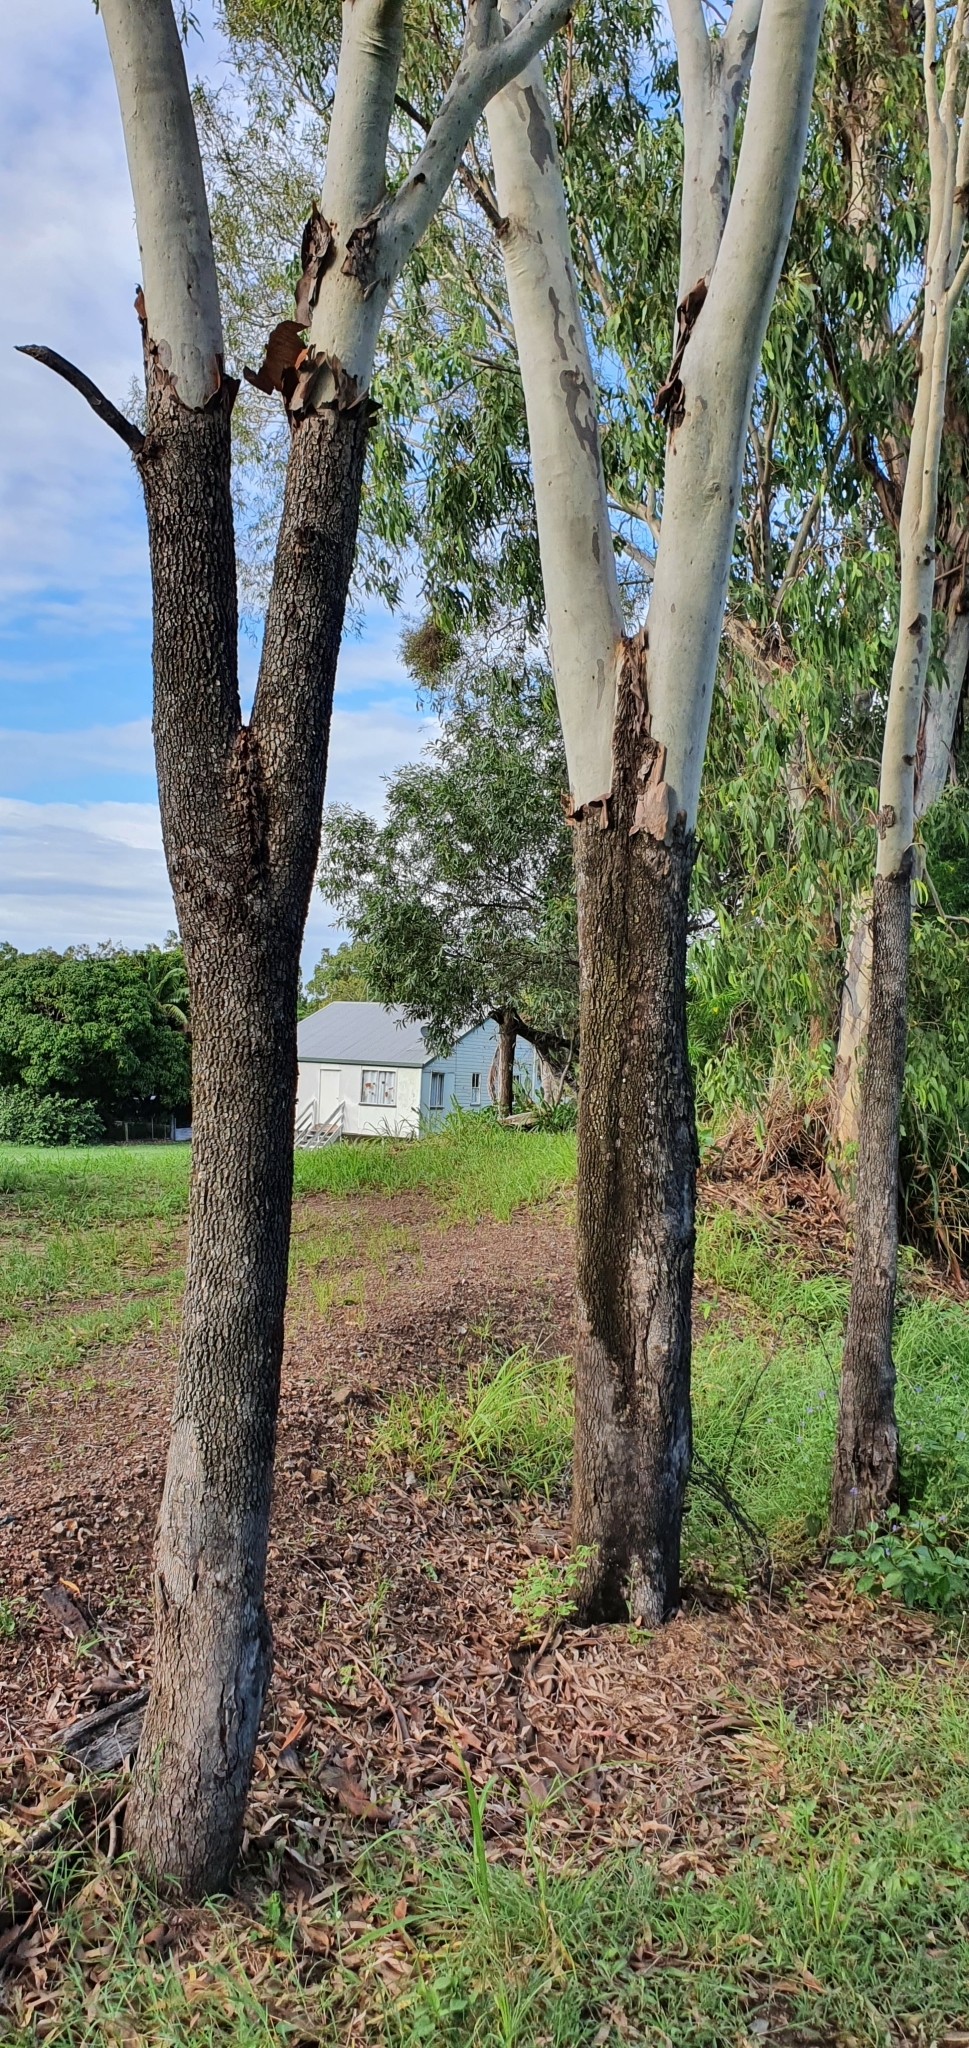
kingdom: Plantae
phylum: Tracheophyta
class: Magnoliopsida
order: Myrtales
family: Myrtaceae
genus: Corymbia
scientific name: Corymbia tessellaris
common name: Carbeen
